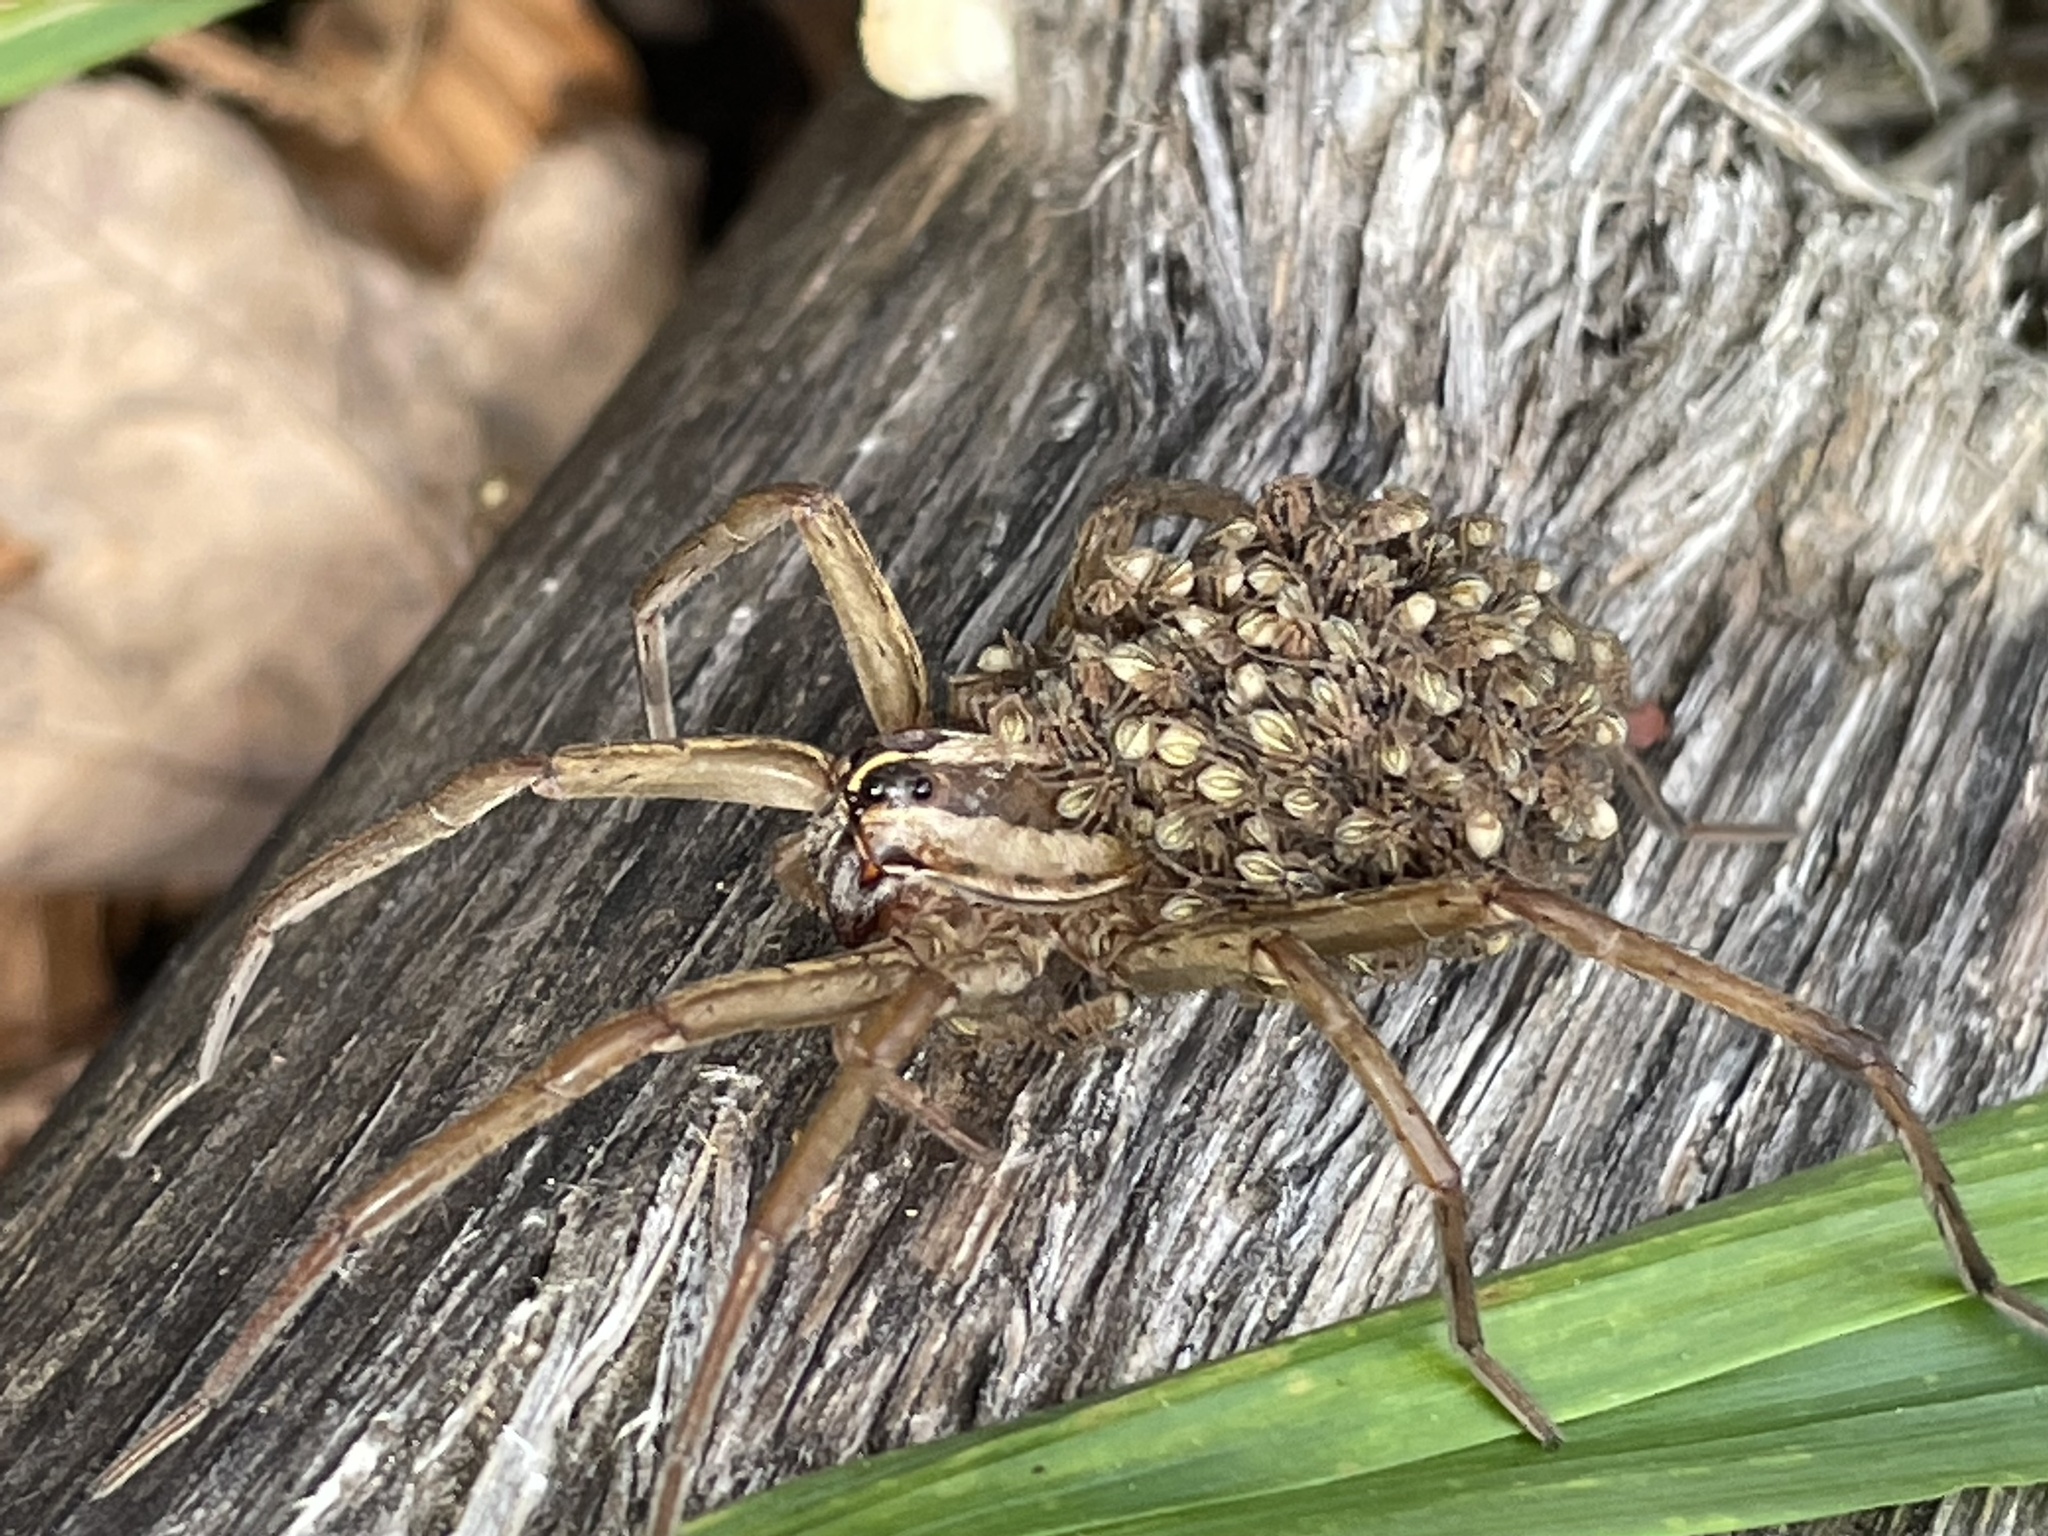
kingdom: Animalia
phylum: Arthropoda
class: Arachnida
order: Araneae
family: Lycosidae
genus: Rabidosa
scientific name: Rabidosa rabida
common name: Rabid wolf spider
